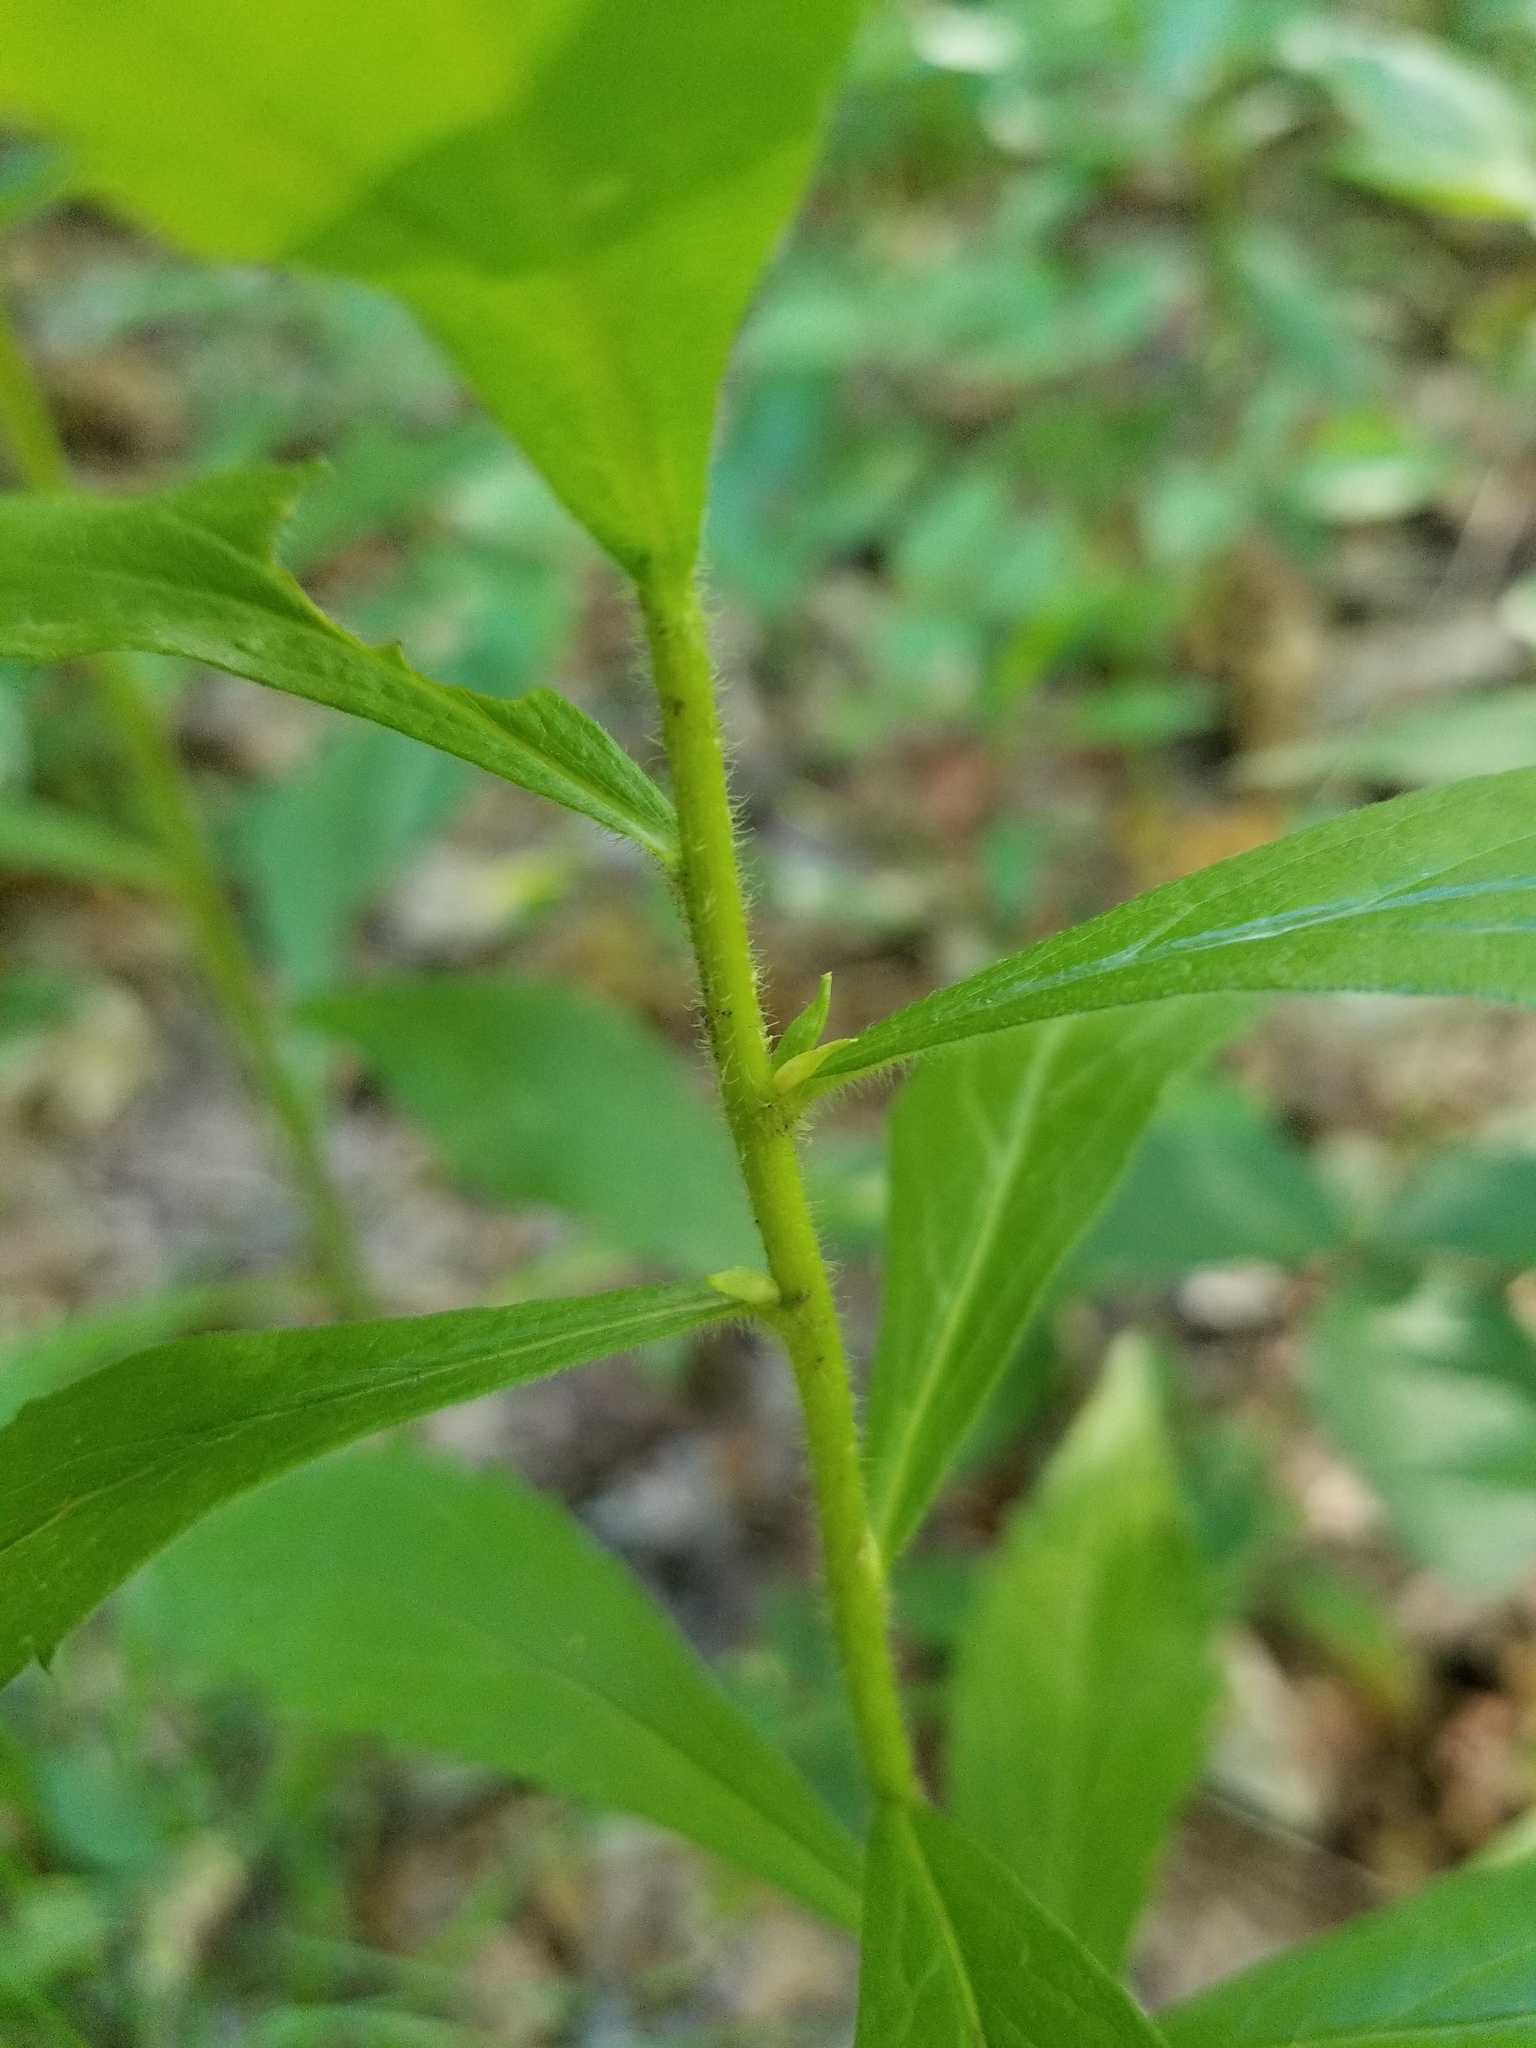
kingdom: Animalia
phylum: Arthropoda
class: Insecta
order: Diptera
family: Cecidomyiidae
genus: Rhopalomyia
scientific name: Rhopalomyia clarkei
